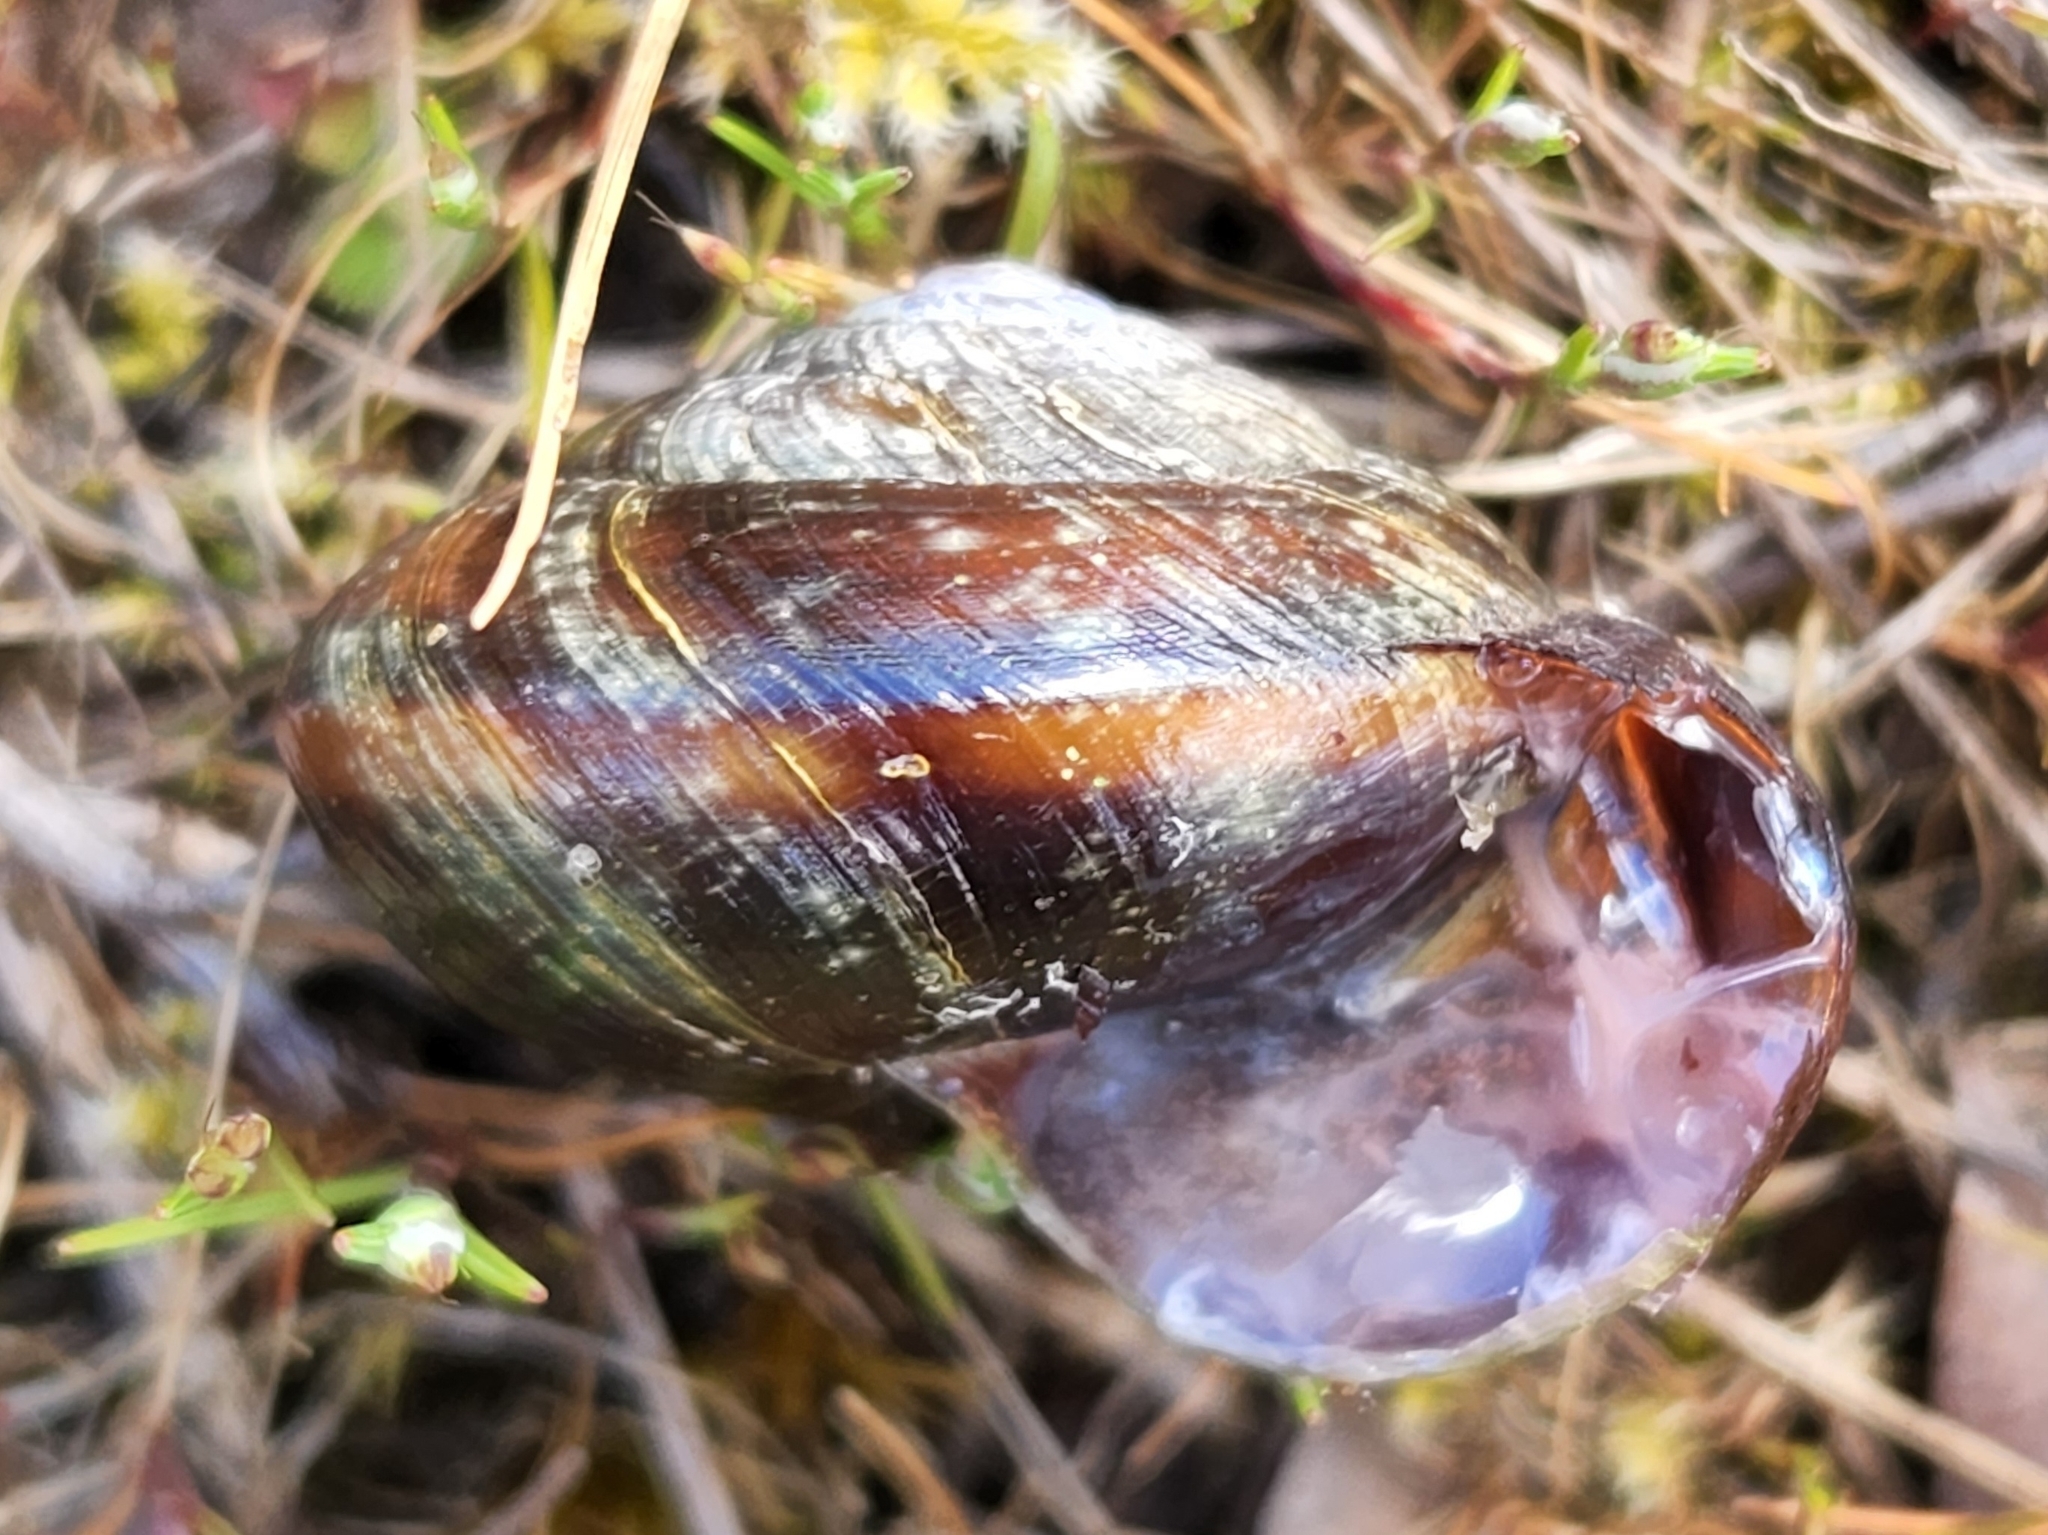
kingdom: Animalia
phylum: Mollusca
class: Gastropoda
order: Stylommatophora
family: Xanthonychidae
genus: Monadenia
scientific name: Monadenia fidelis
